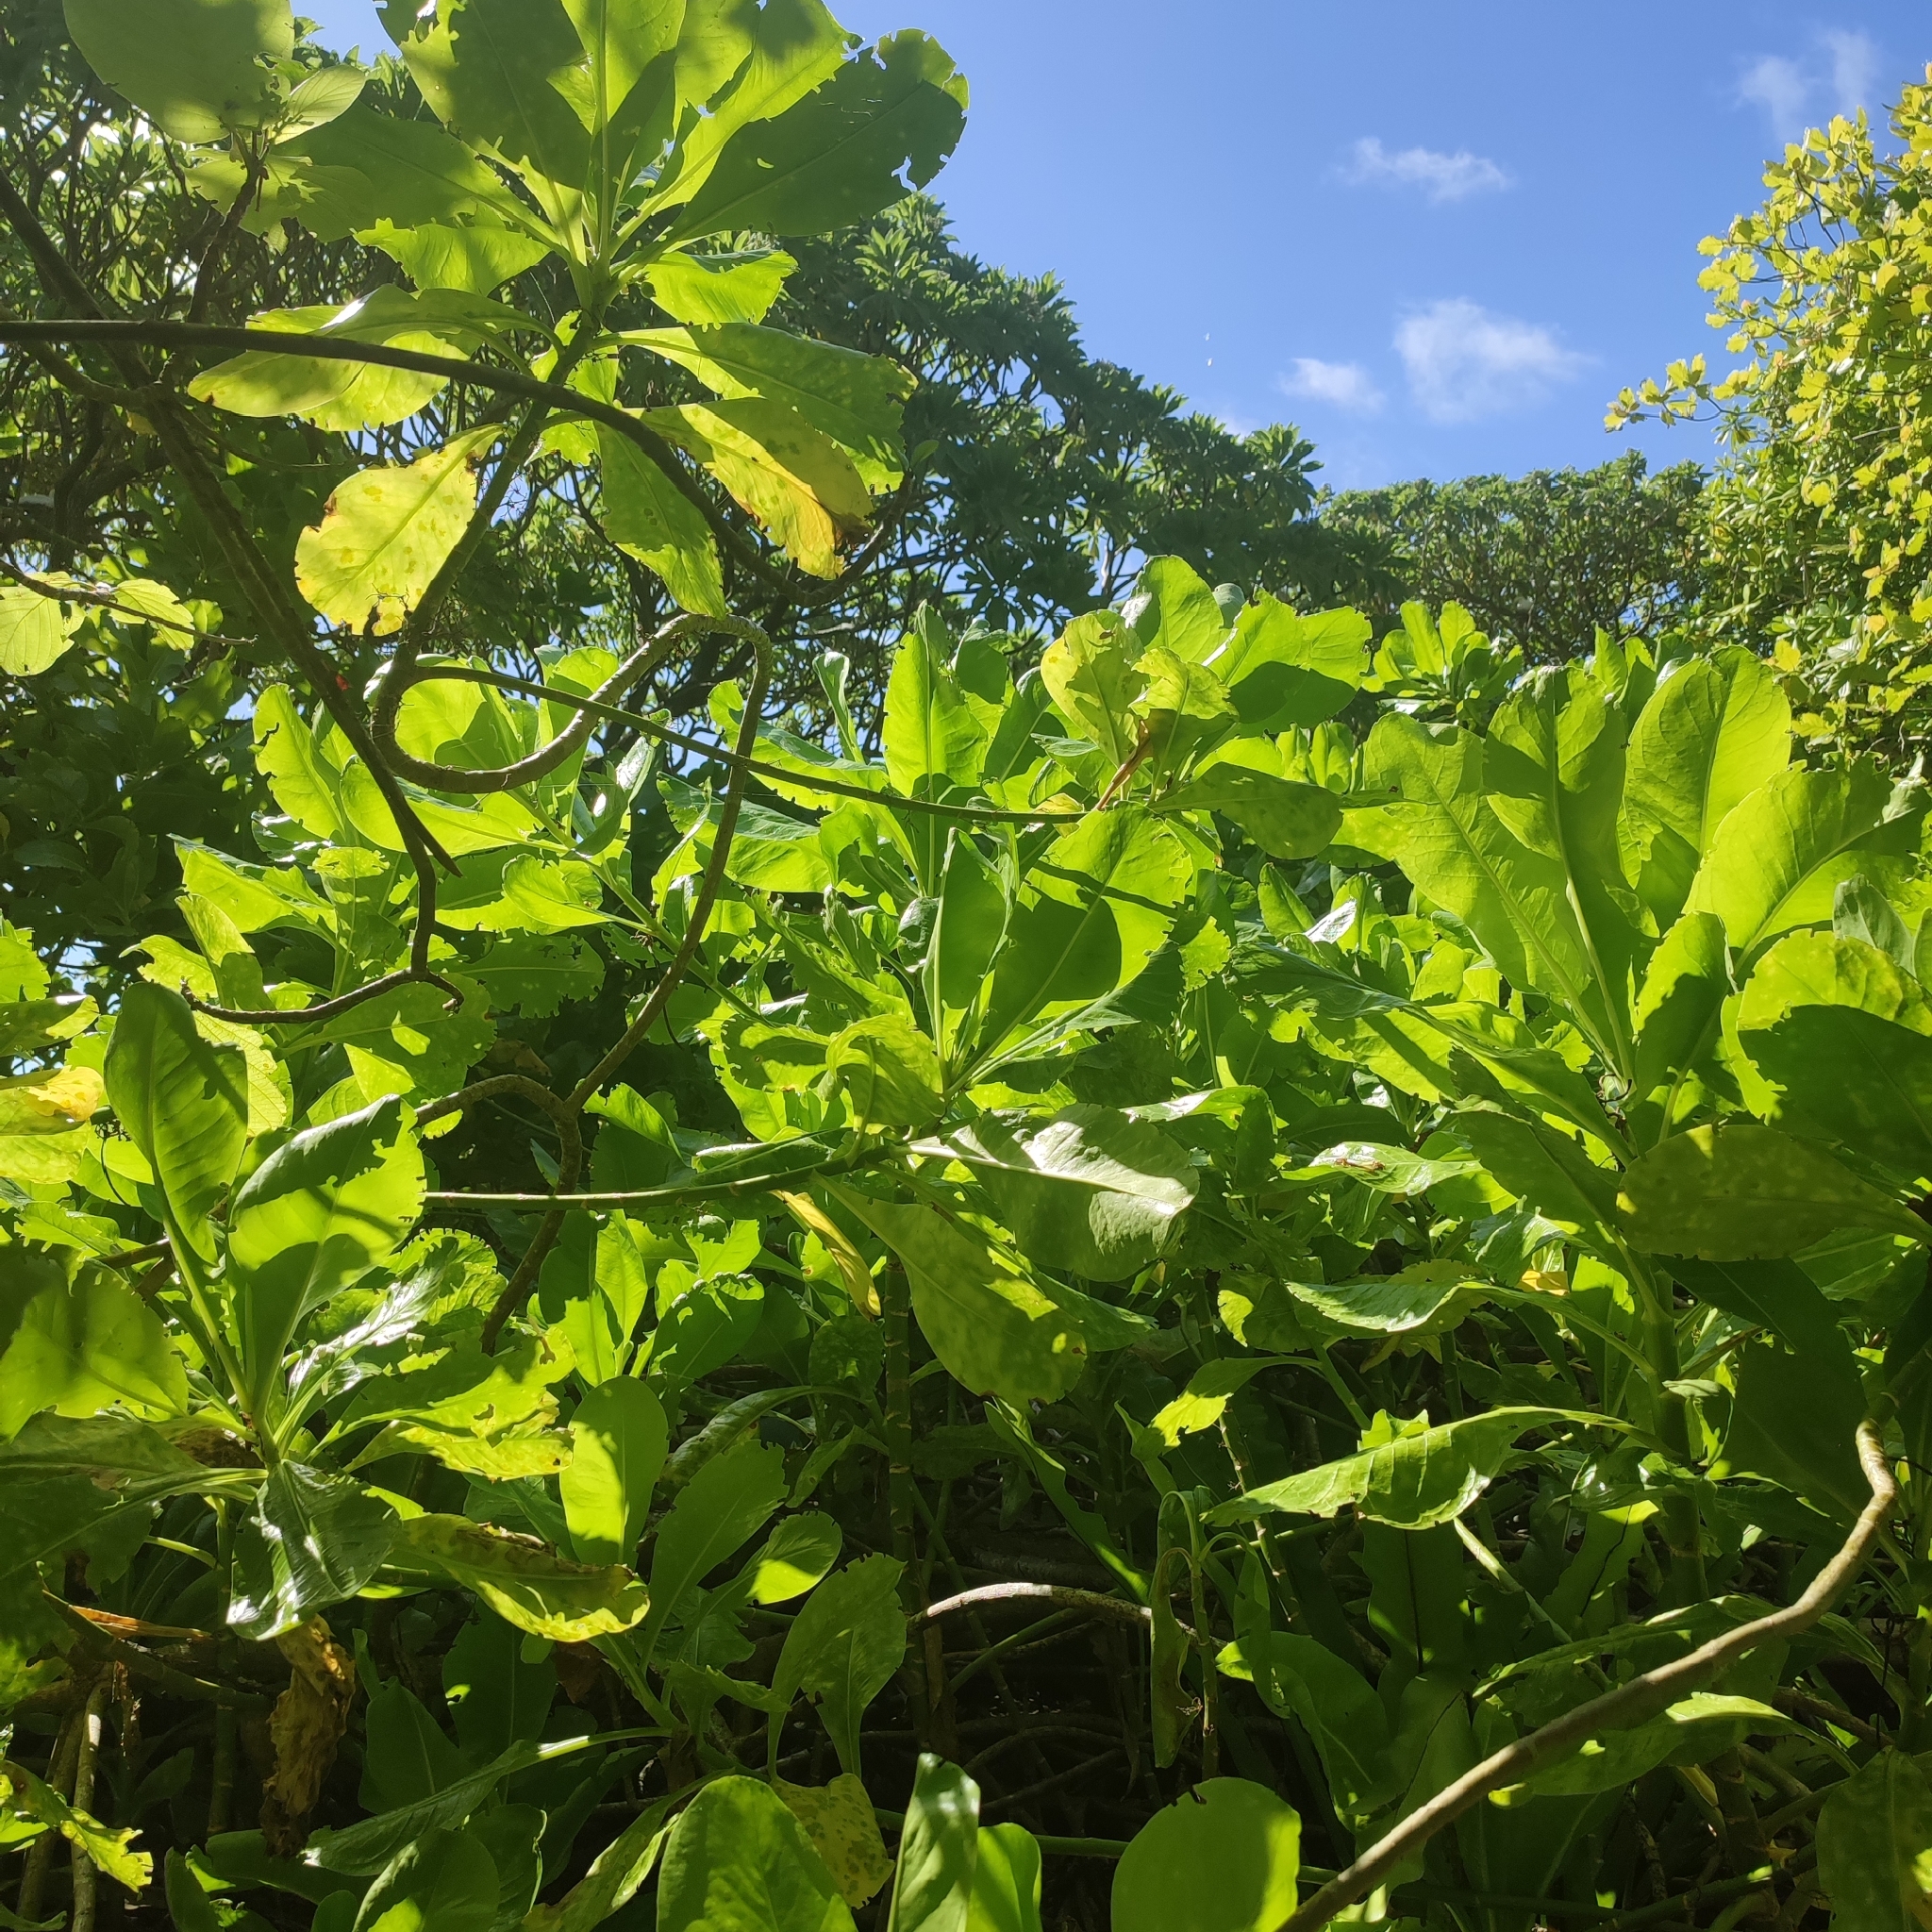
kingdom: Plantae
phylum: Tracheophyta
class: Magnoliopsida
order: Asterales
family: Goodeniaceae
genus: Scaevola
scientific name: Scaevola taccada
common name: Sea lettucetree
